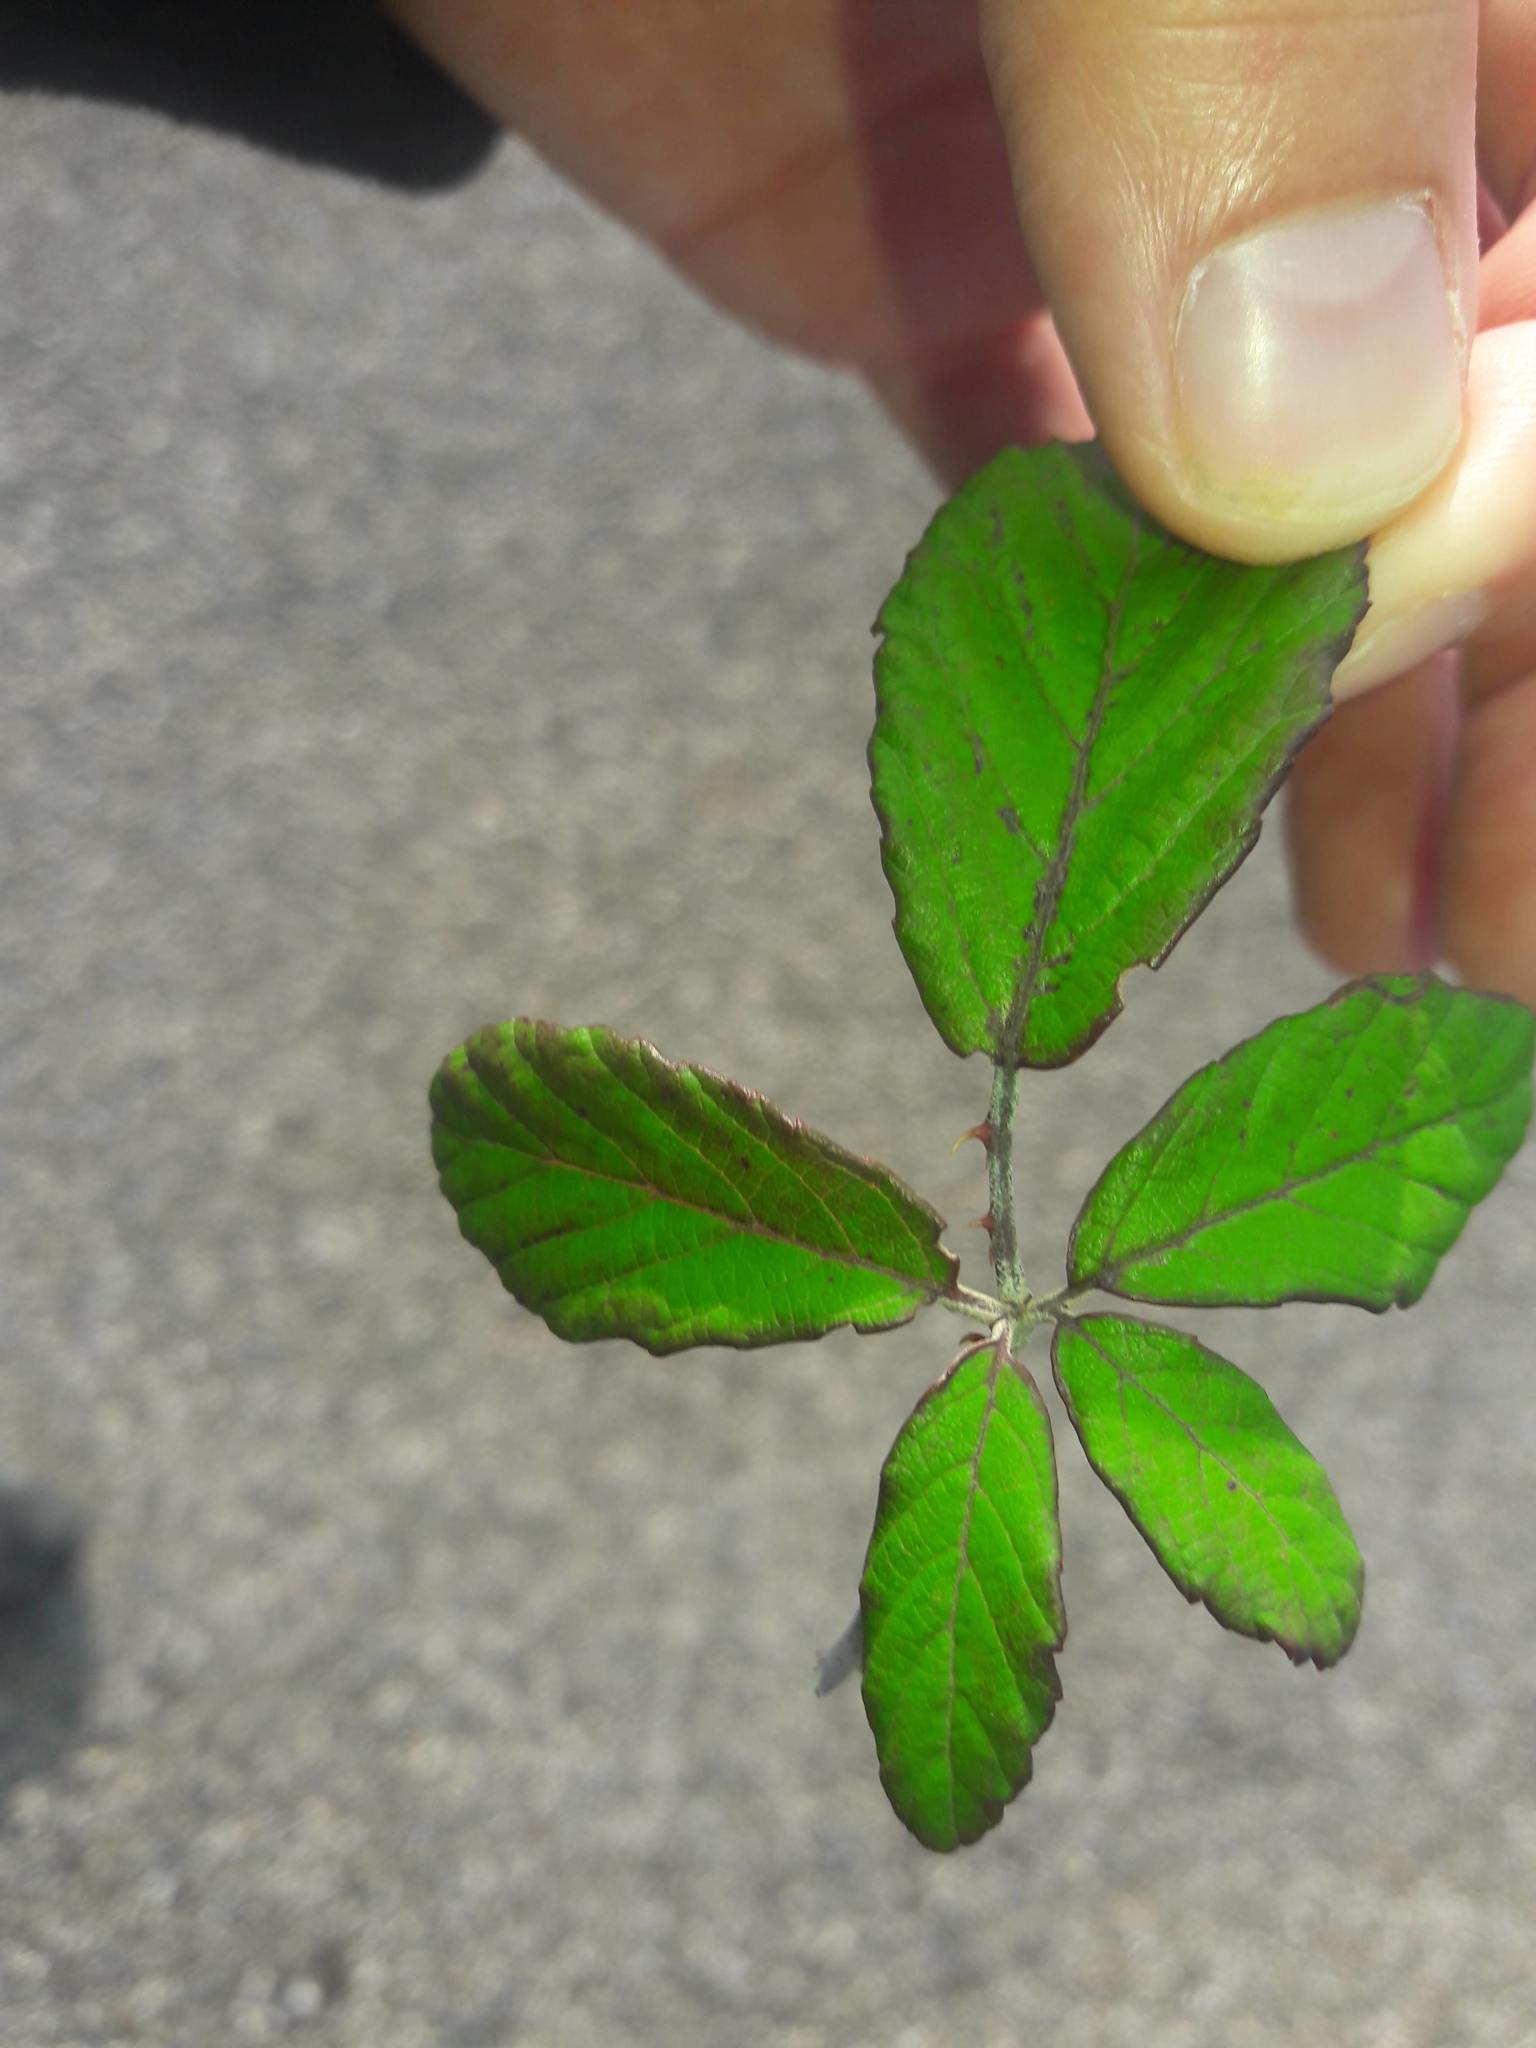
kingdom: Plantae
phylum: Tracheophyta
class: Magnoliopsida
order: Rosales
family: Rosaceae
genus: Rubus
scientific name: Rubus ulmifolius
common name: Elmleaf blackberry
